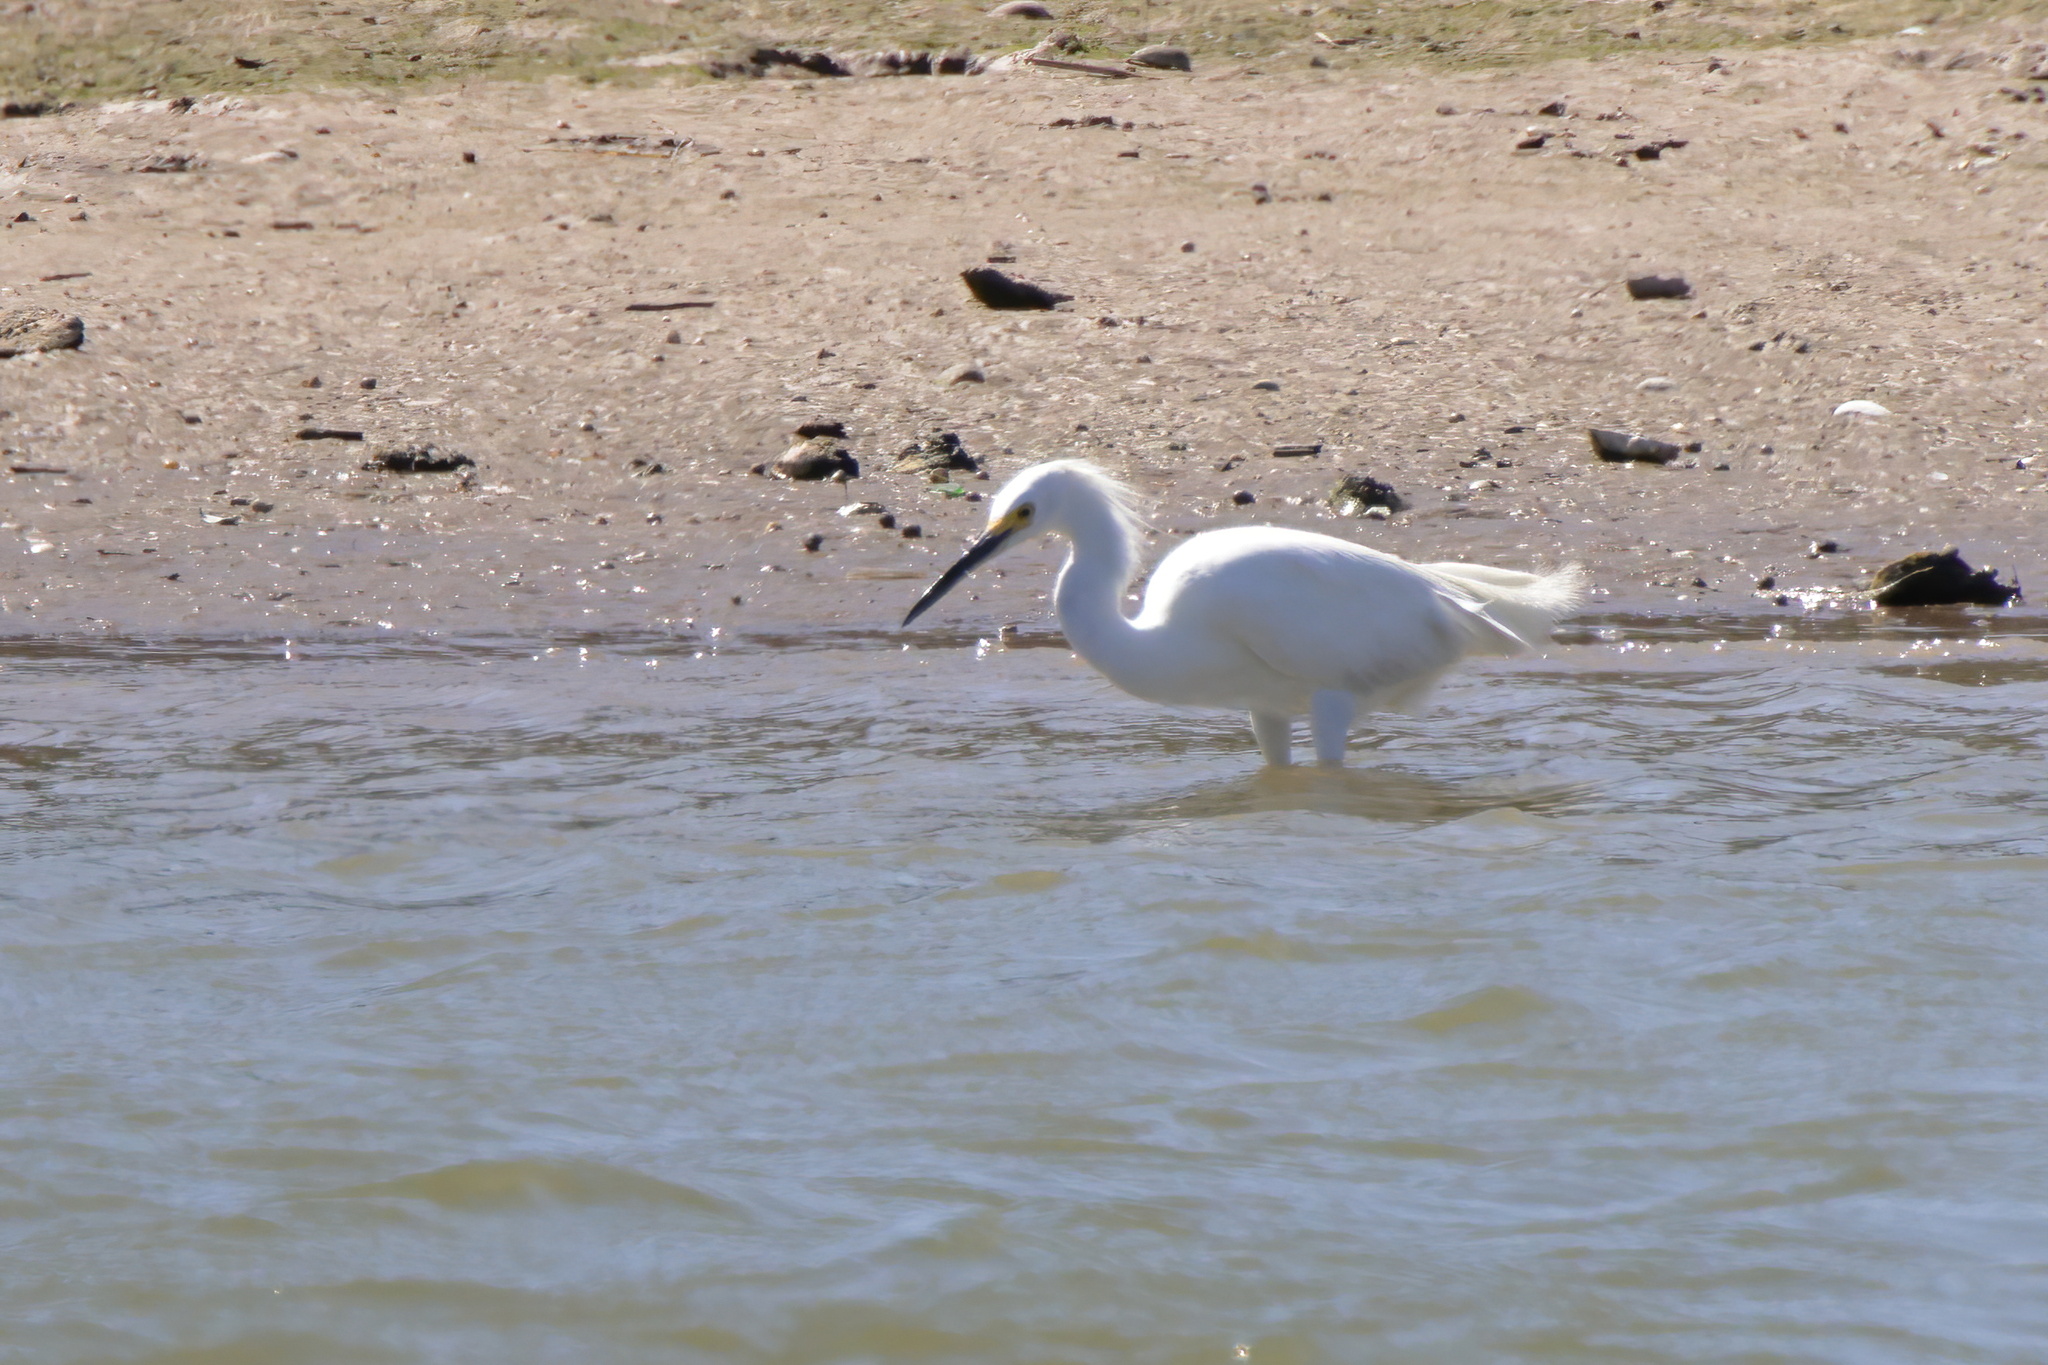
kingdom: Animalia
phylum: Chordata
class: Aves
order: Pelecaniformes
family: Ardeidae
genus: Egretta
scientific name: Egretta thula
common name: Snowy egret
